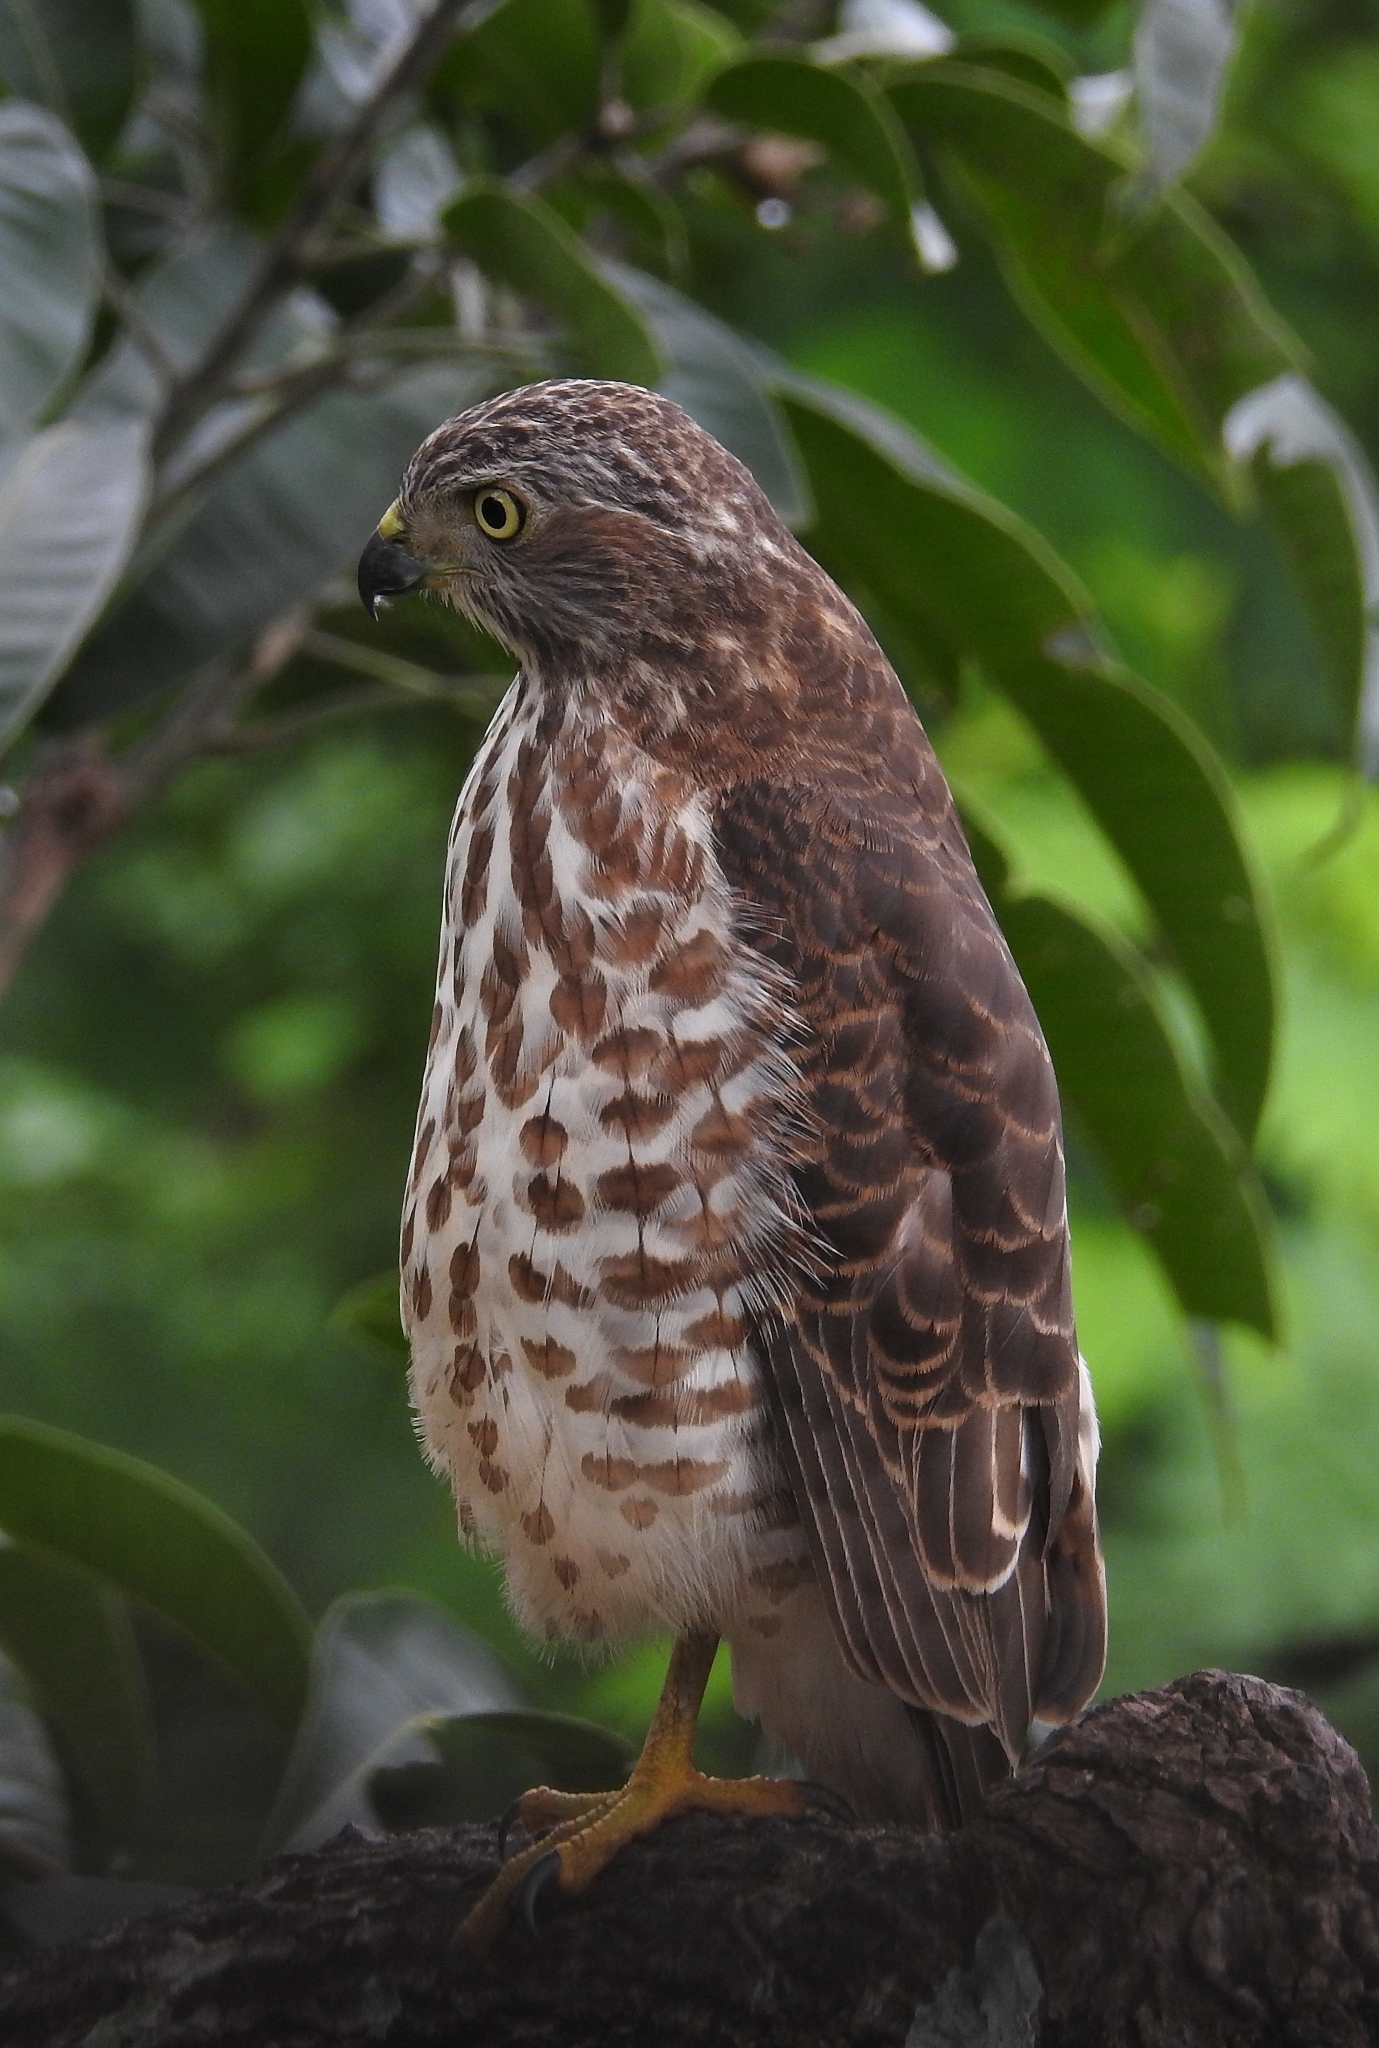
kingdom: Animalia
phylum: Chordata
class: Aves
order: Accipitriformes
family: Accipitridae
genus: Accipiter
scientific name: Accipiter badius
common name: Shikra
